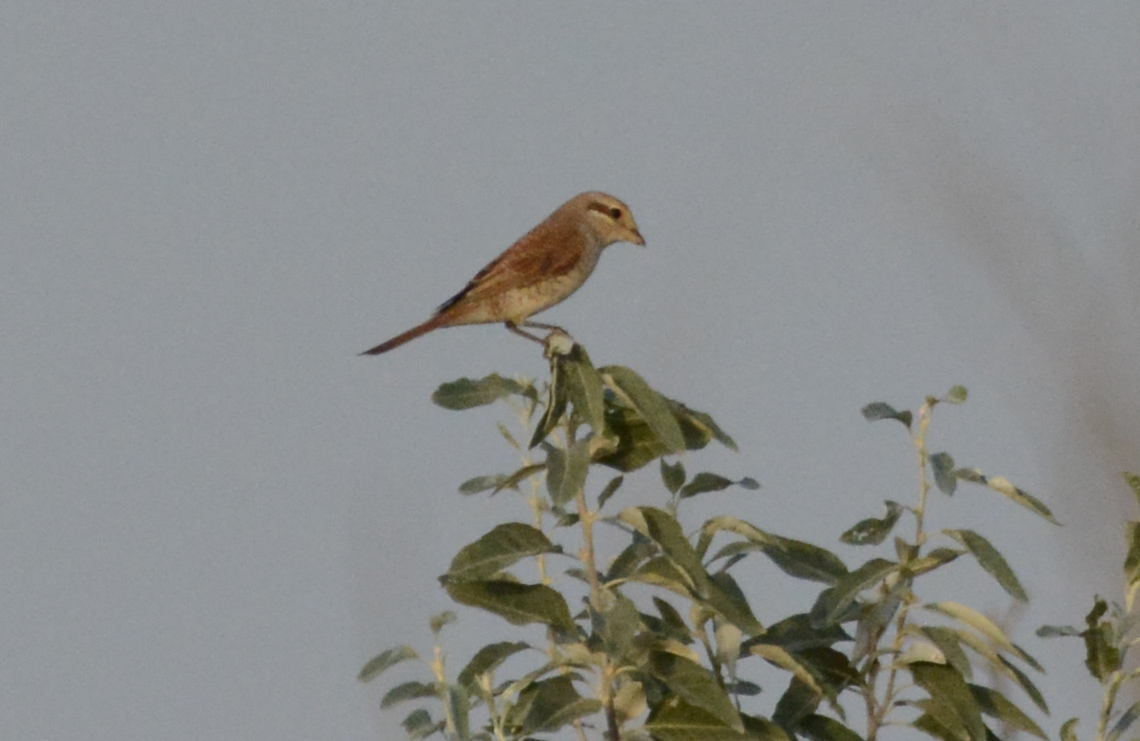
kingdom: Animalia
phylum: Chordata
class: Aves
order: Passeriformes
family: Laniidae
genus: Lanius
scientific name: Lanius collurio
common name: Red-backed shrike
